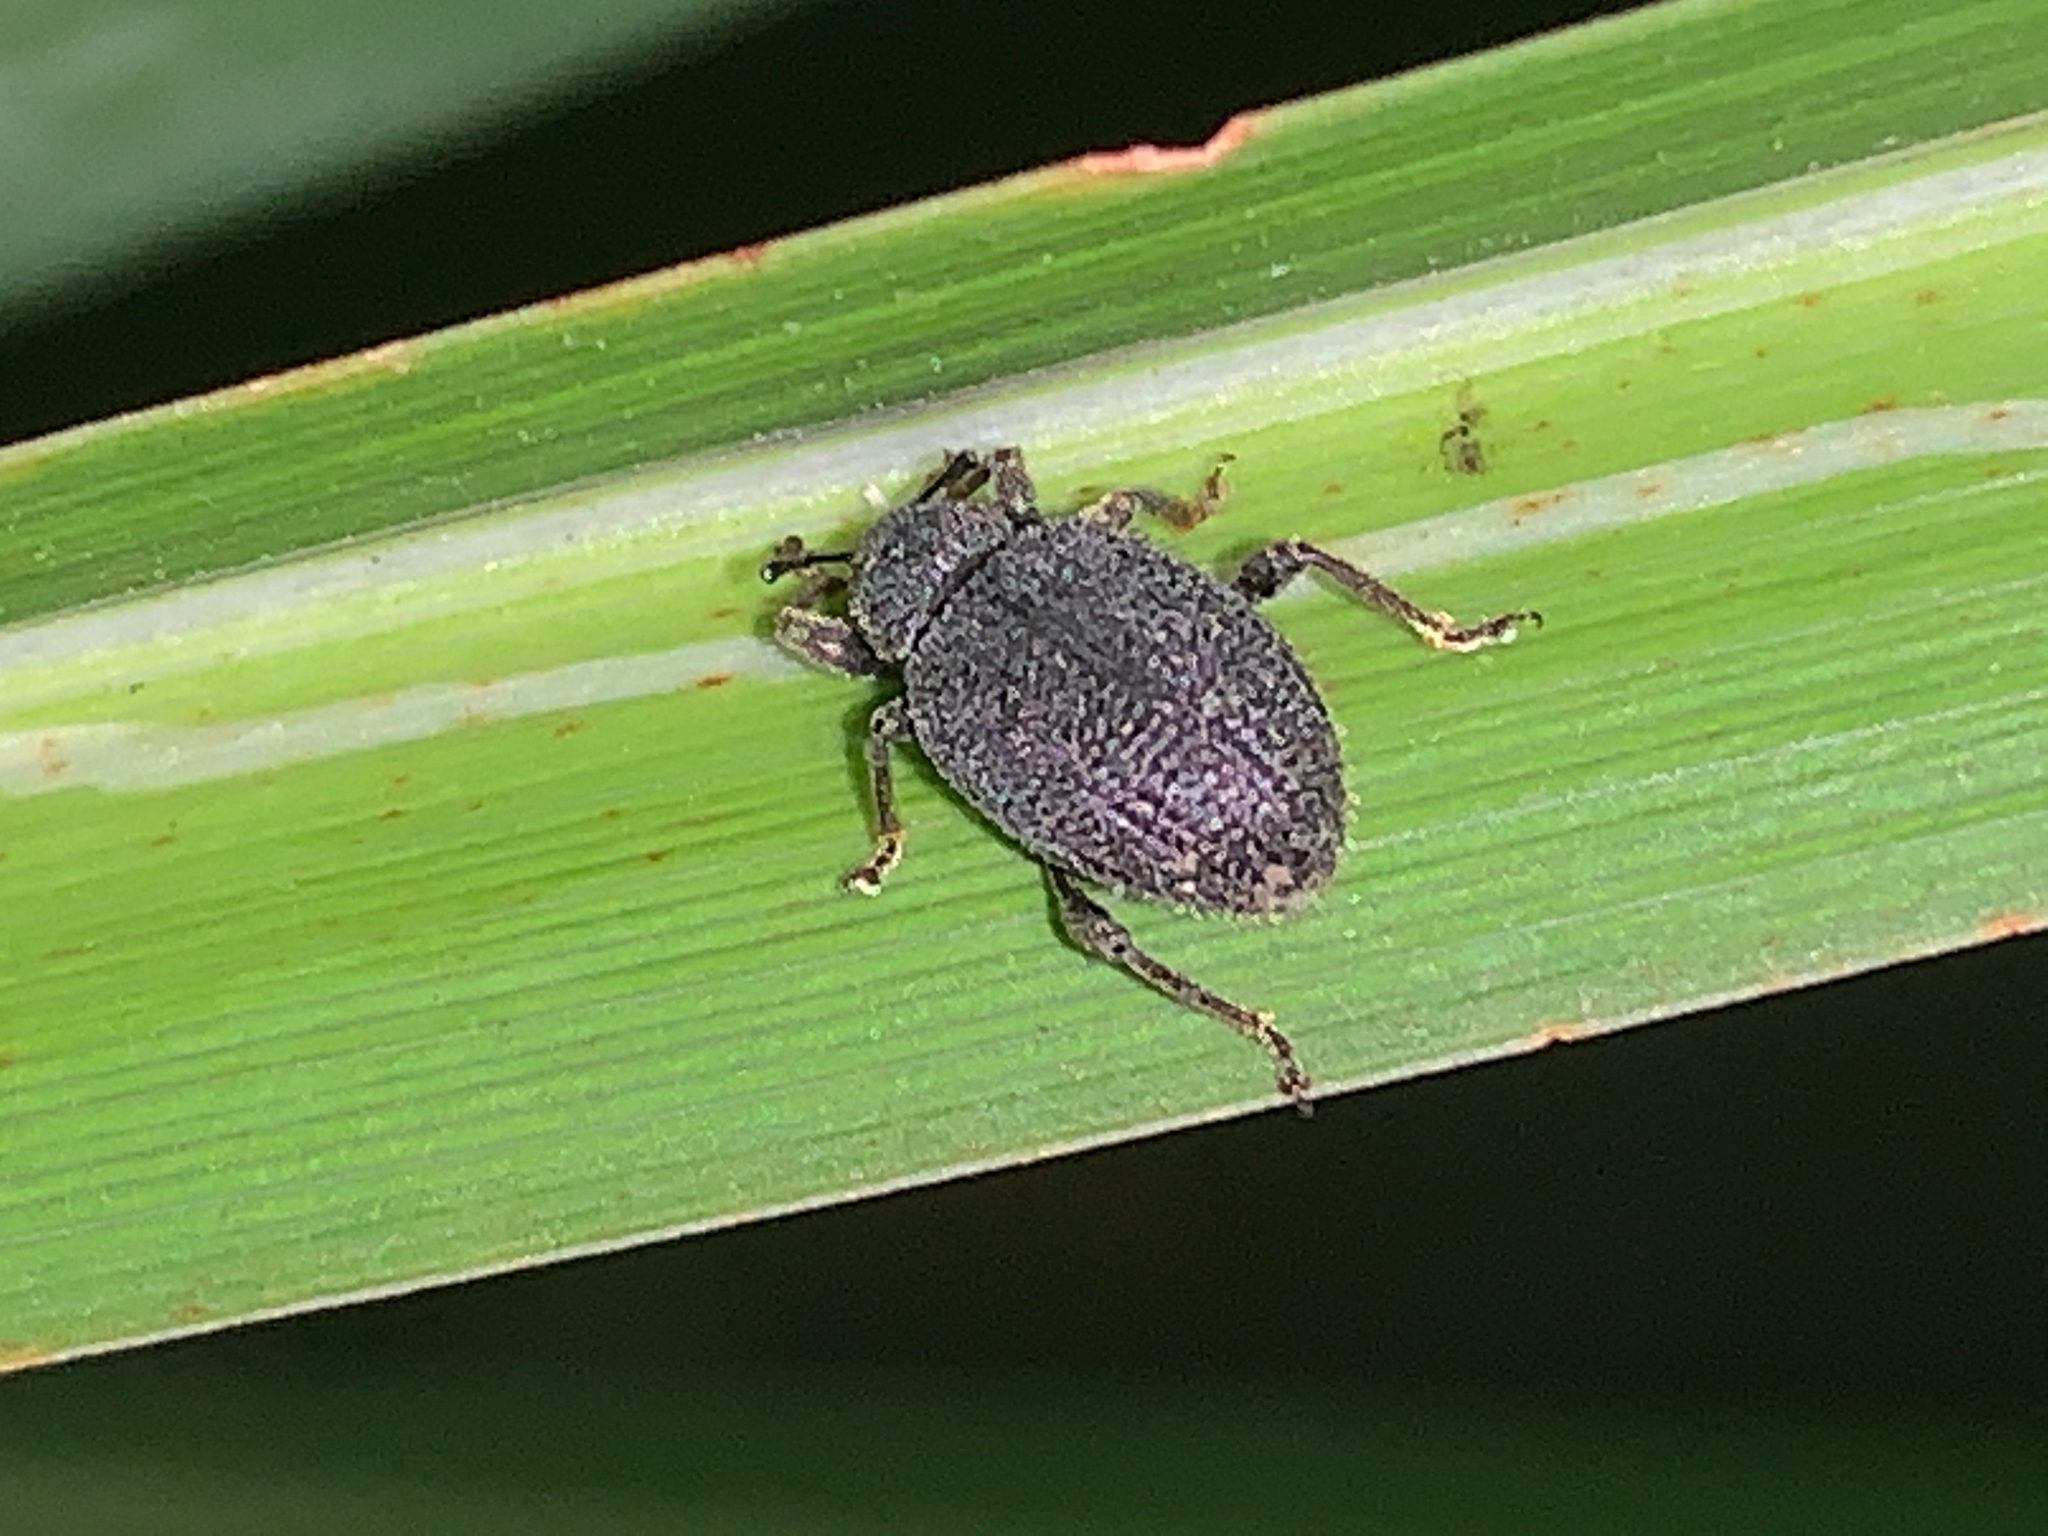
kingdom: Animalia
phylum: Arthropoda
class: Insecta
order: Coleoptera
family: Curculionidae
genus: Otiorhynchus
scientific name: Otiorhynchus rugosostriatus
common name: Weevil
